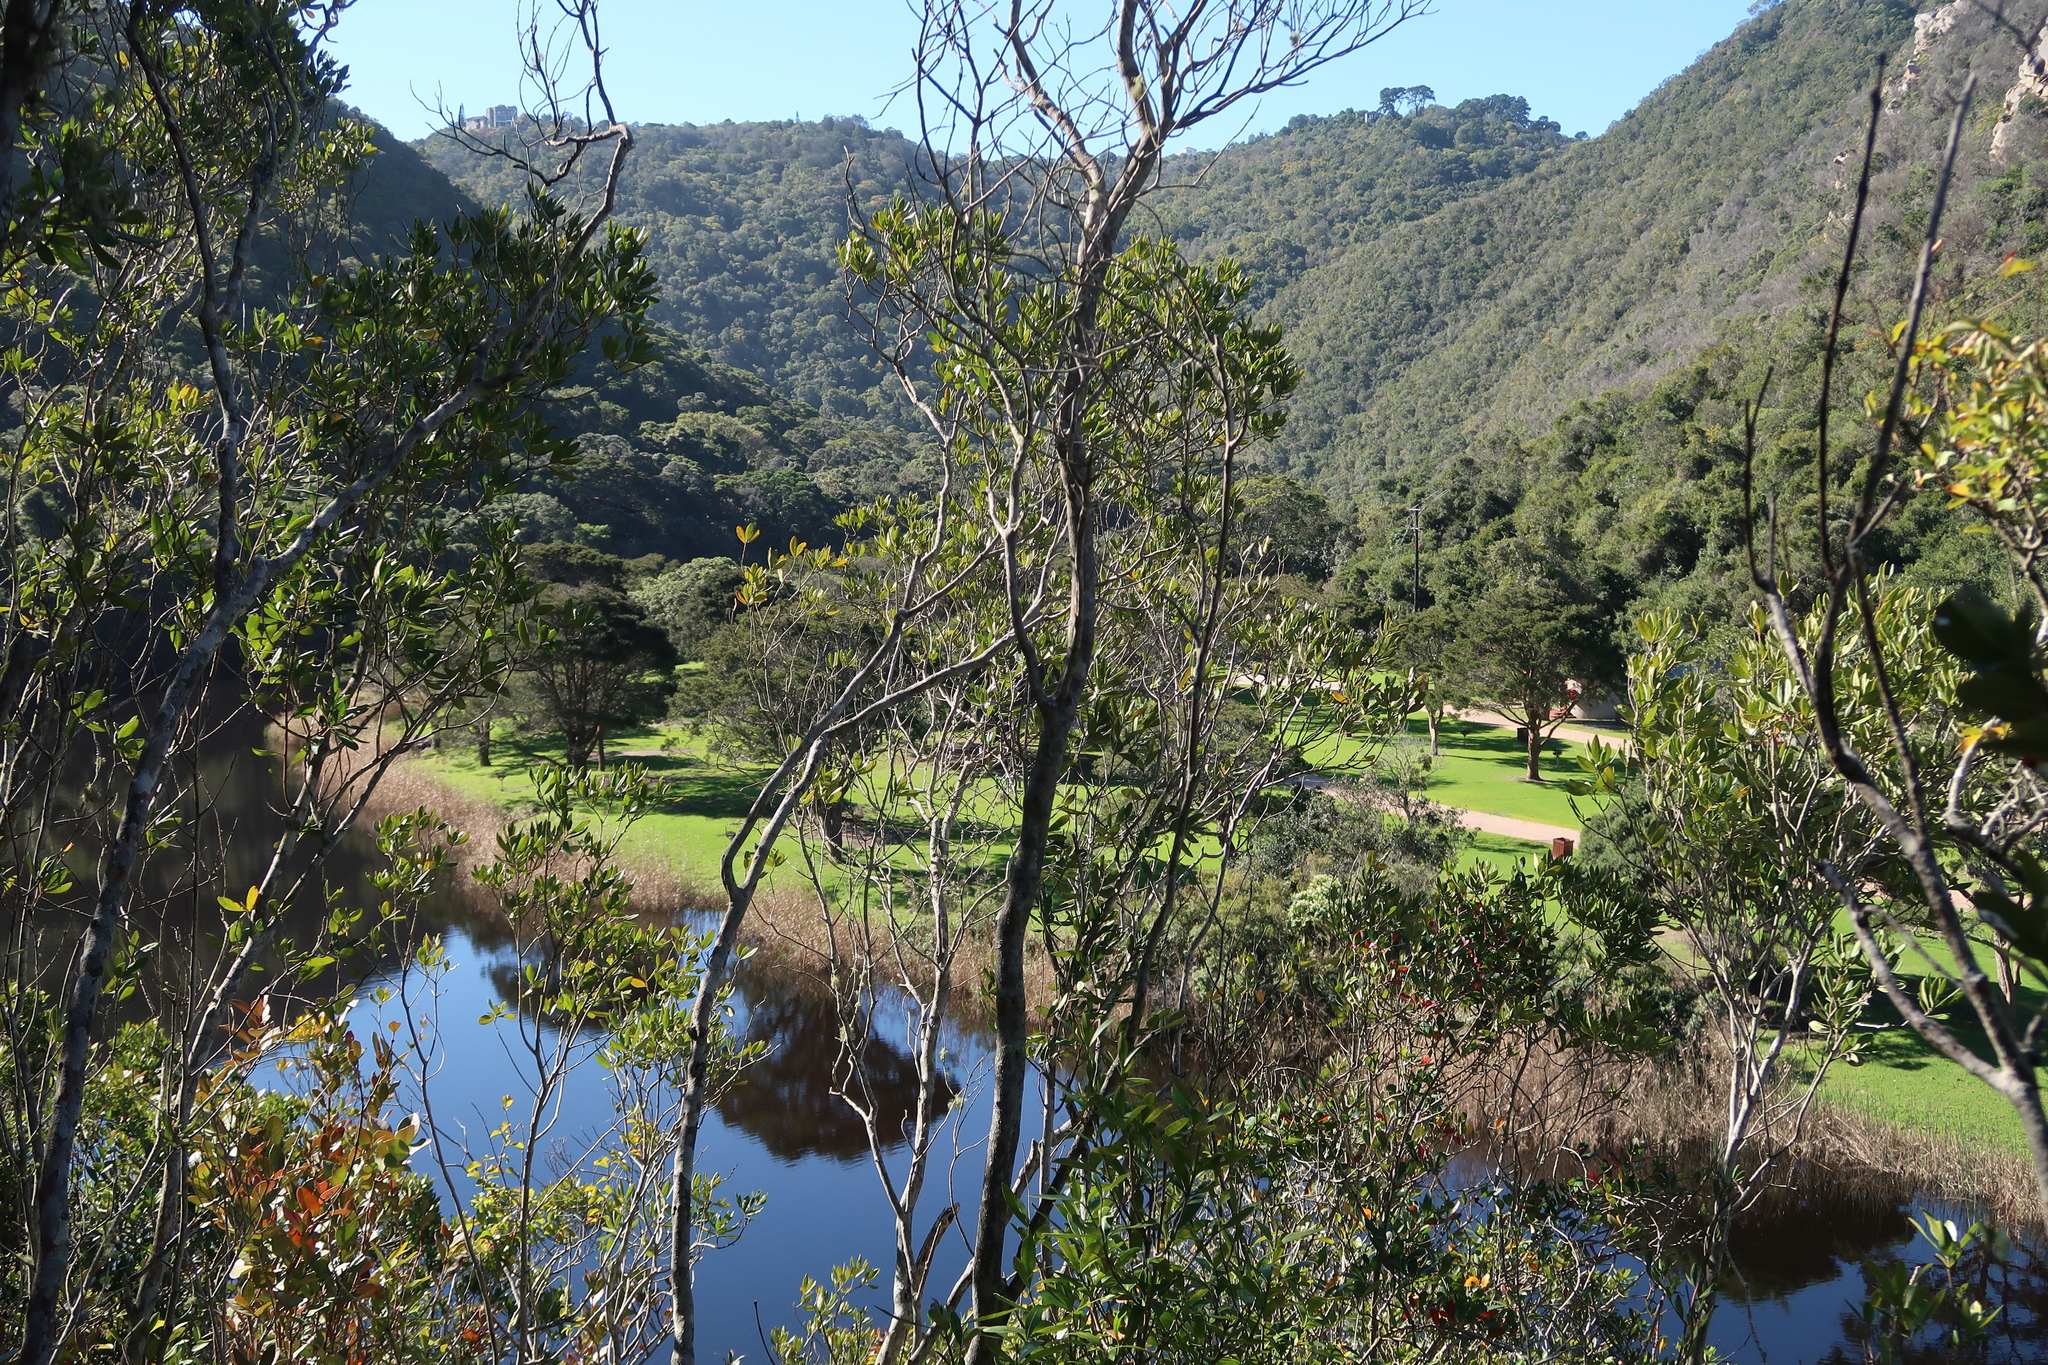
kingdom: Plantae
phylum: Tracheophyta
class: Pinopsida
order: Pinales
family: Podocarpaceae
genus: Afrocarpus
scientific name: Afrocarpus falcatus
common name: Bastard yellowwood
